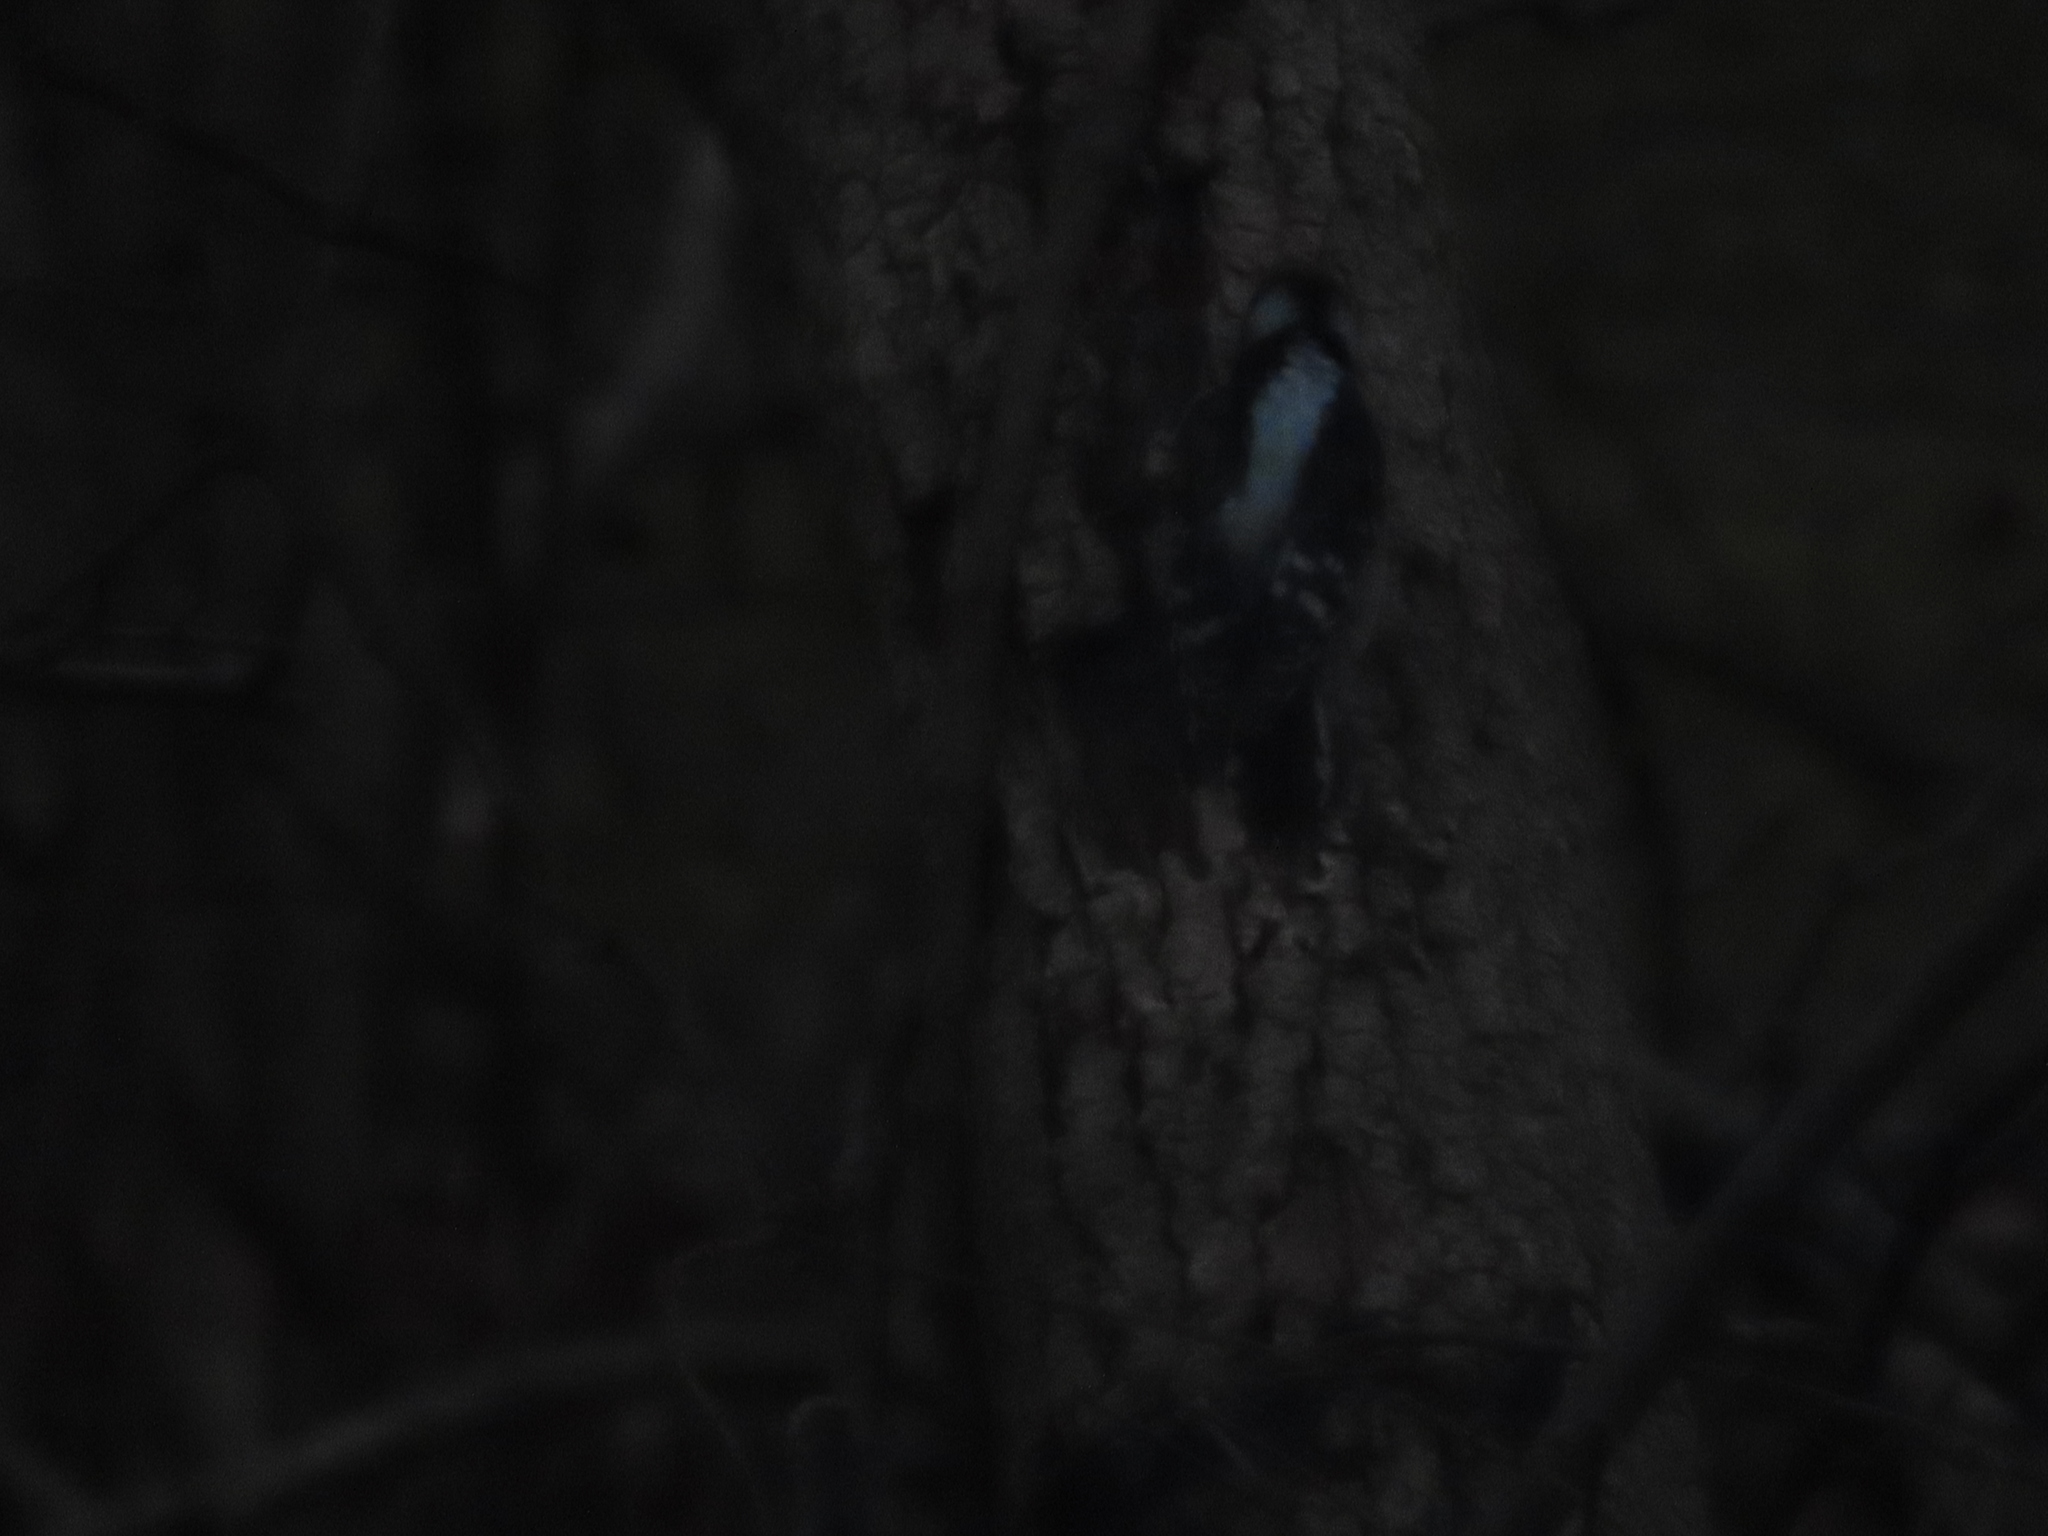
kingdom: Animalia
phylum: Chordata
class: Aves
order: Piciformes
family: Picidae
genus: Dryobates
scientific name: Dryobates pubescens
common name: Downy woodpecker
